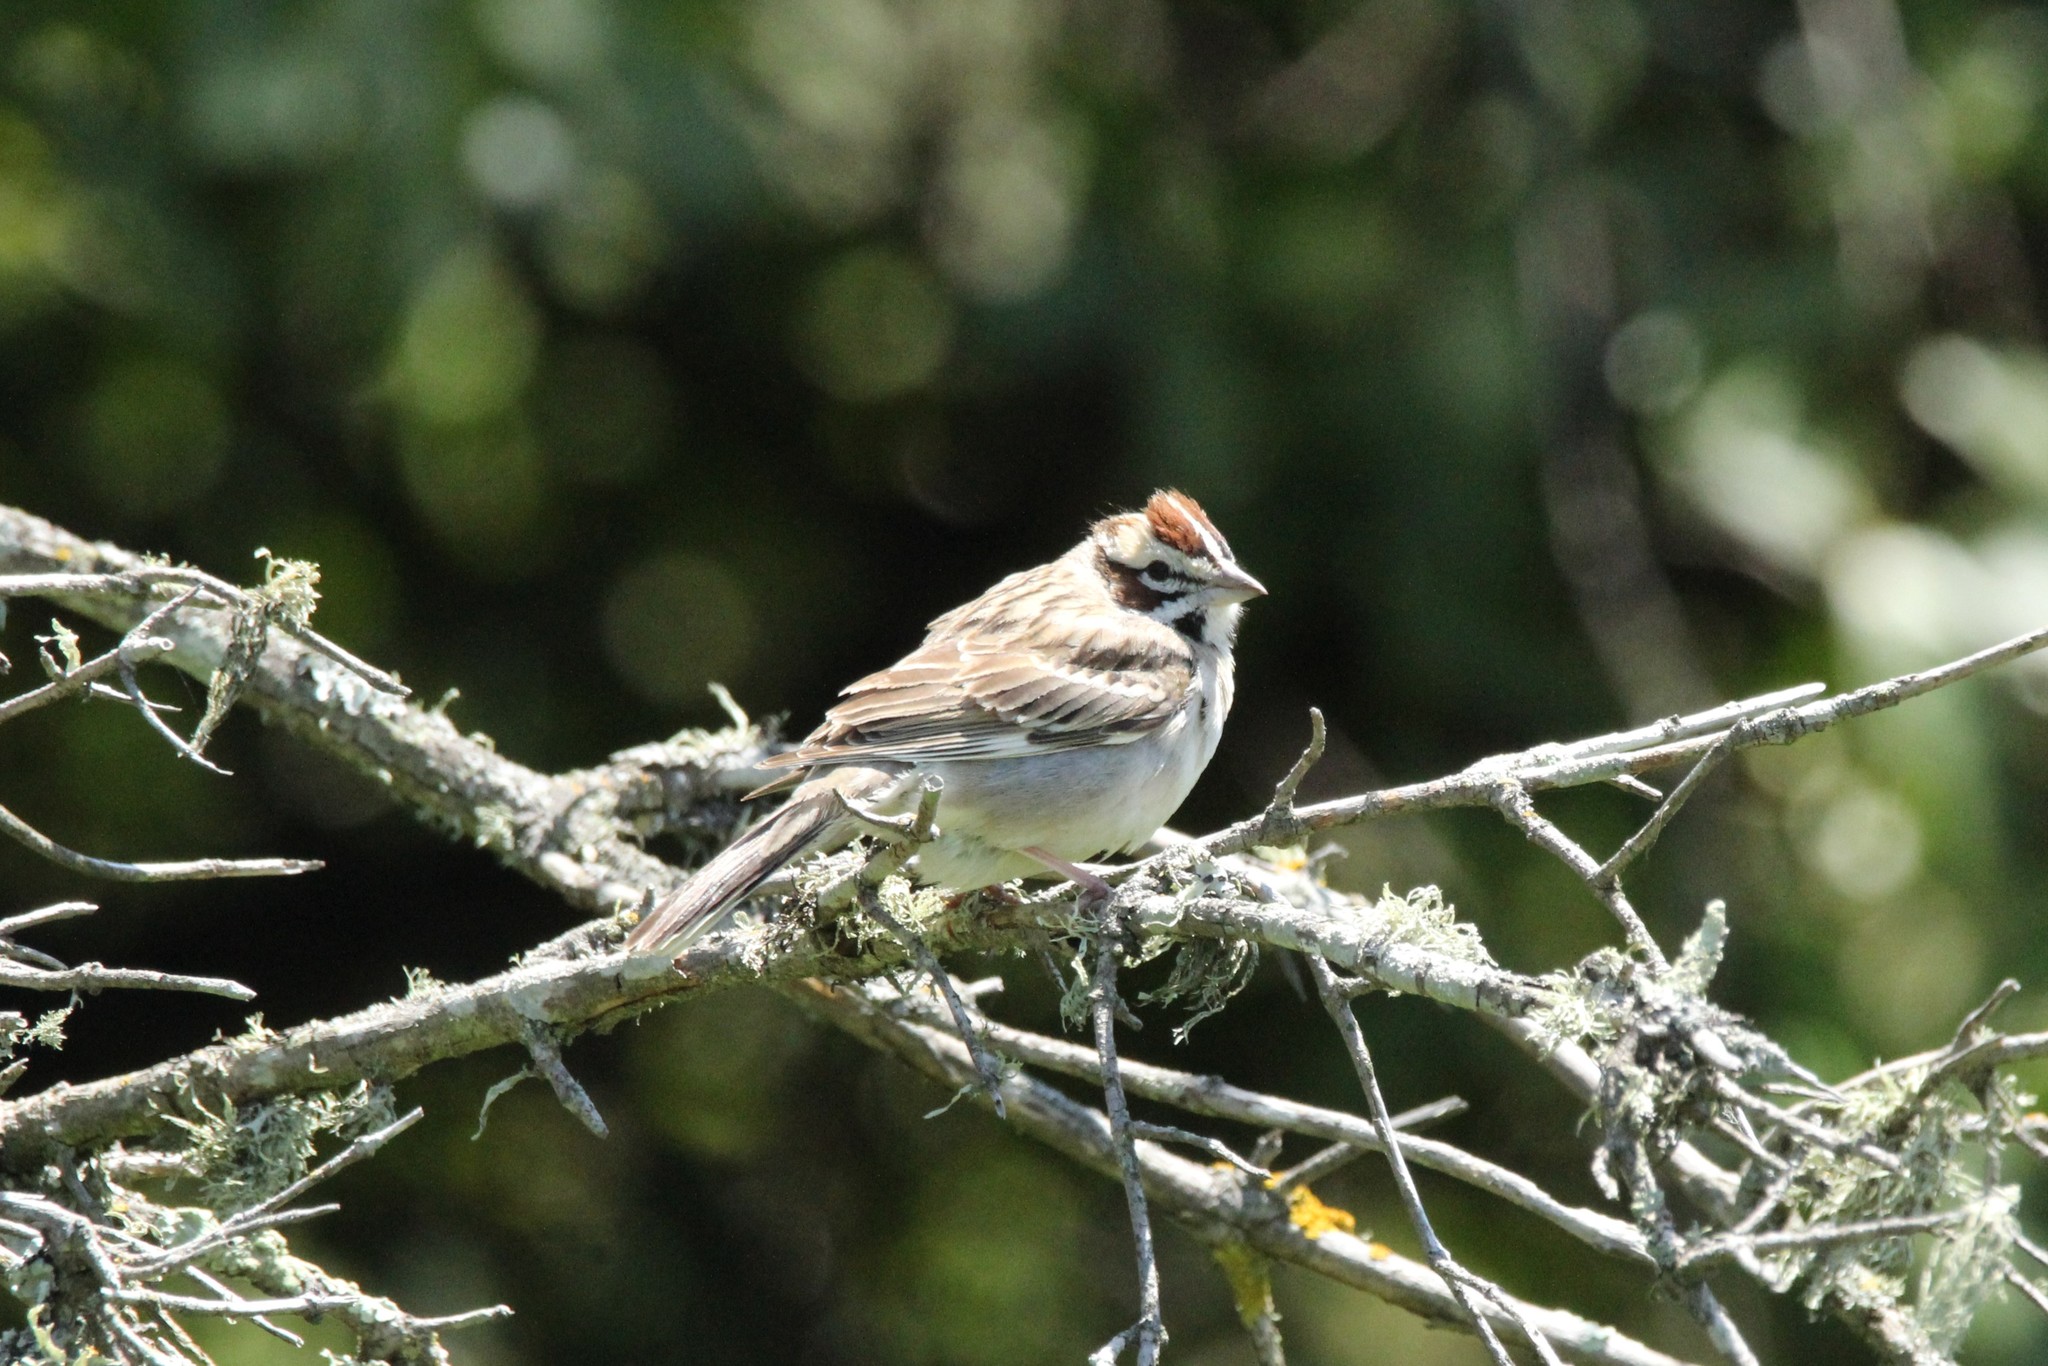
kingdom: Animalia
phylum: Chordata
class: Aves
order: Passeriformes
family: Passerellidae
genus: Chondestes
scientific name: Chondestes grammacus
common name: Lark sparrow
